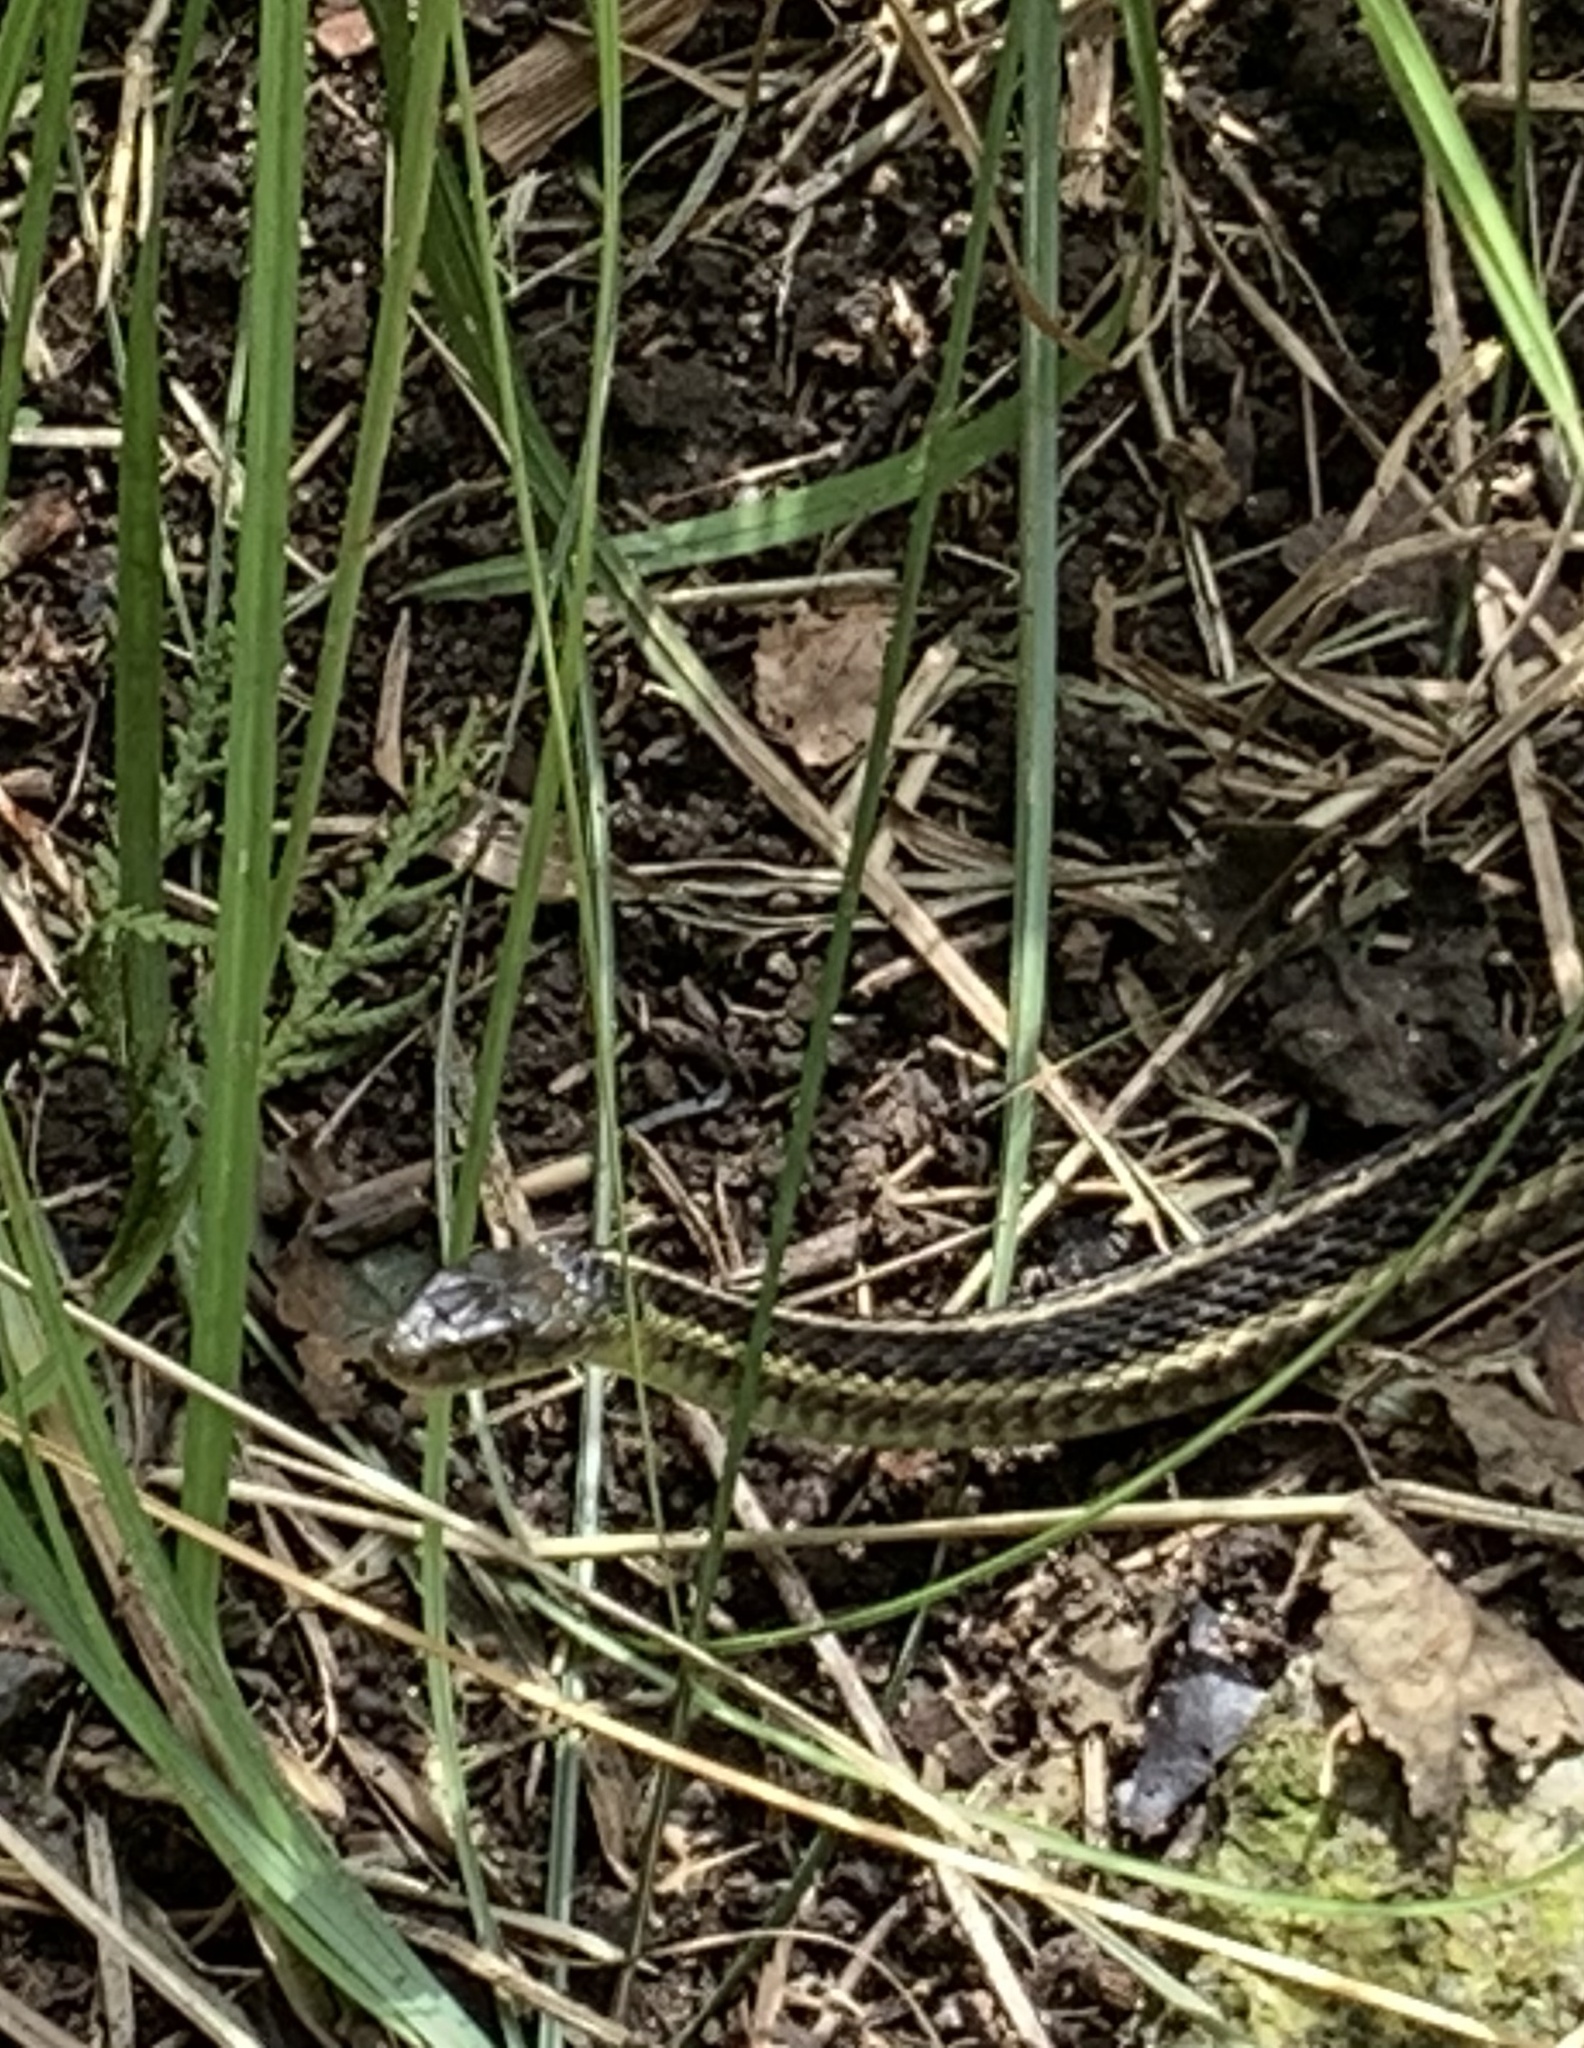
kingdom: Animalia
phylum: Chordata
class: Squamata
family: Colubridae
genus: Thamnophis
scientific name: Thamnophis sirtalis
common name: Common garter snake
